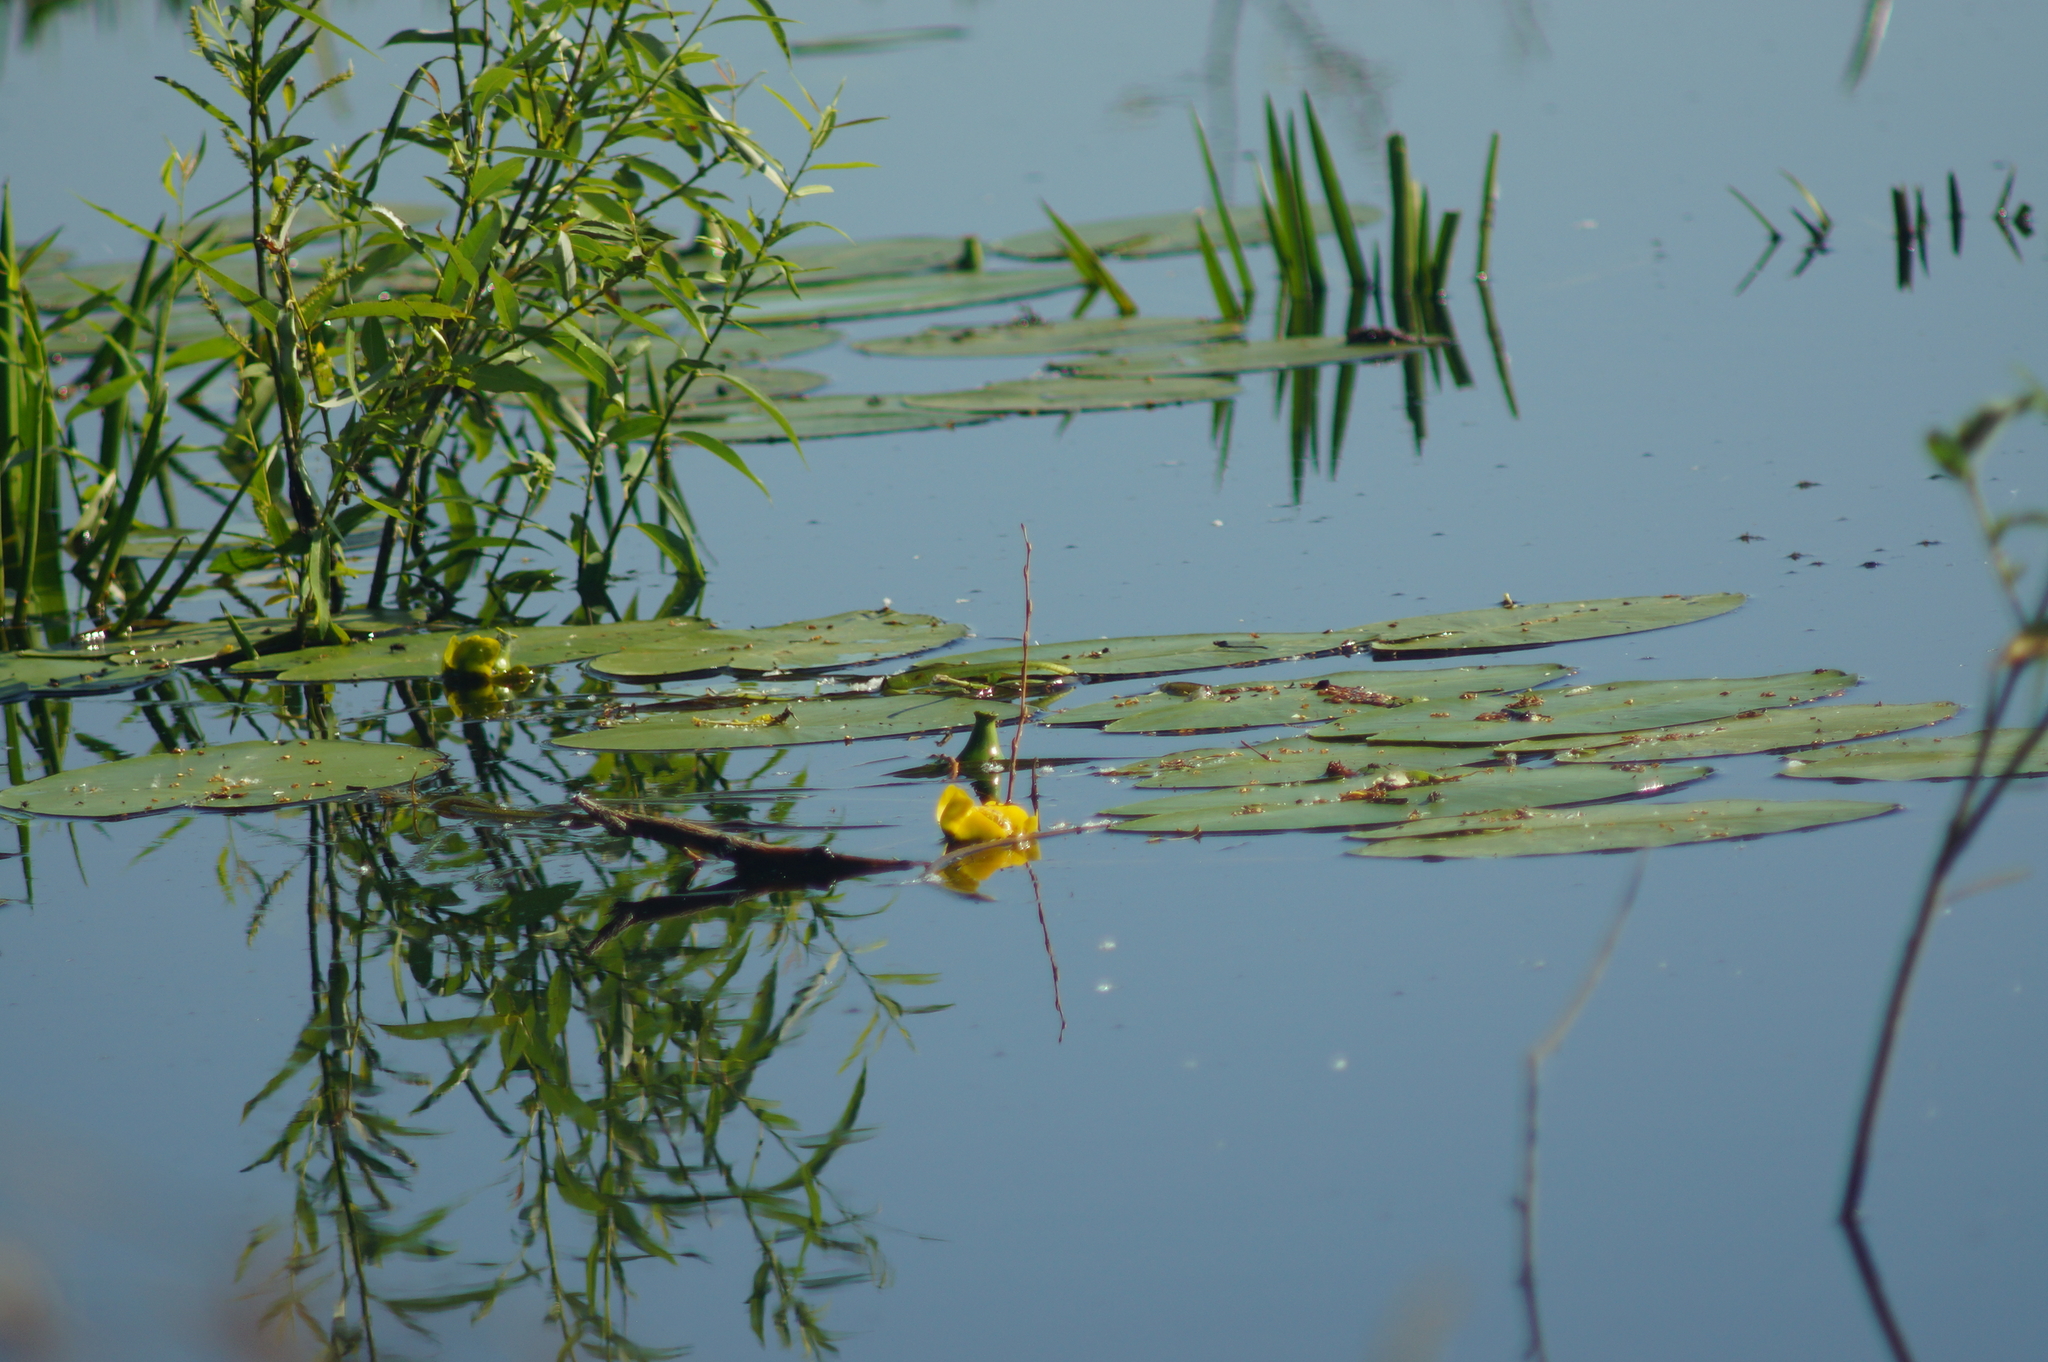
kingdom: Plantae
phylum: Tracheophyta
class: Magnoliopsida
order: Nymphaeales
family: Nymphaeaceae
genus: Nuphar
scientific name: Nuphar lutea
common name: Yellow water-lily
